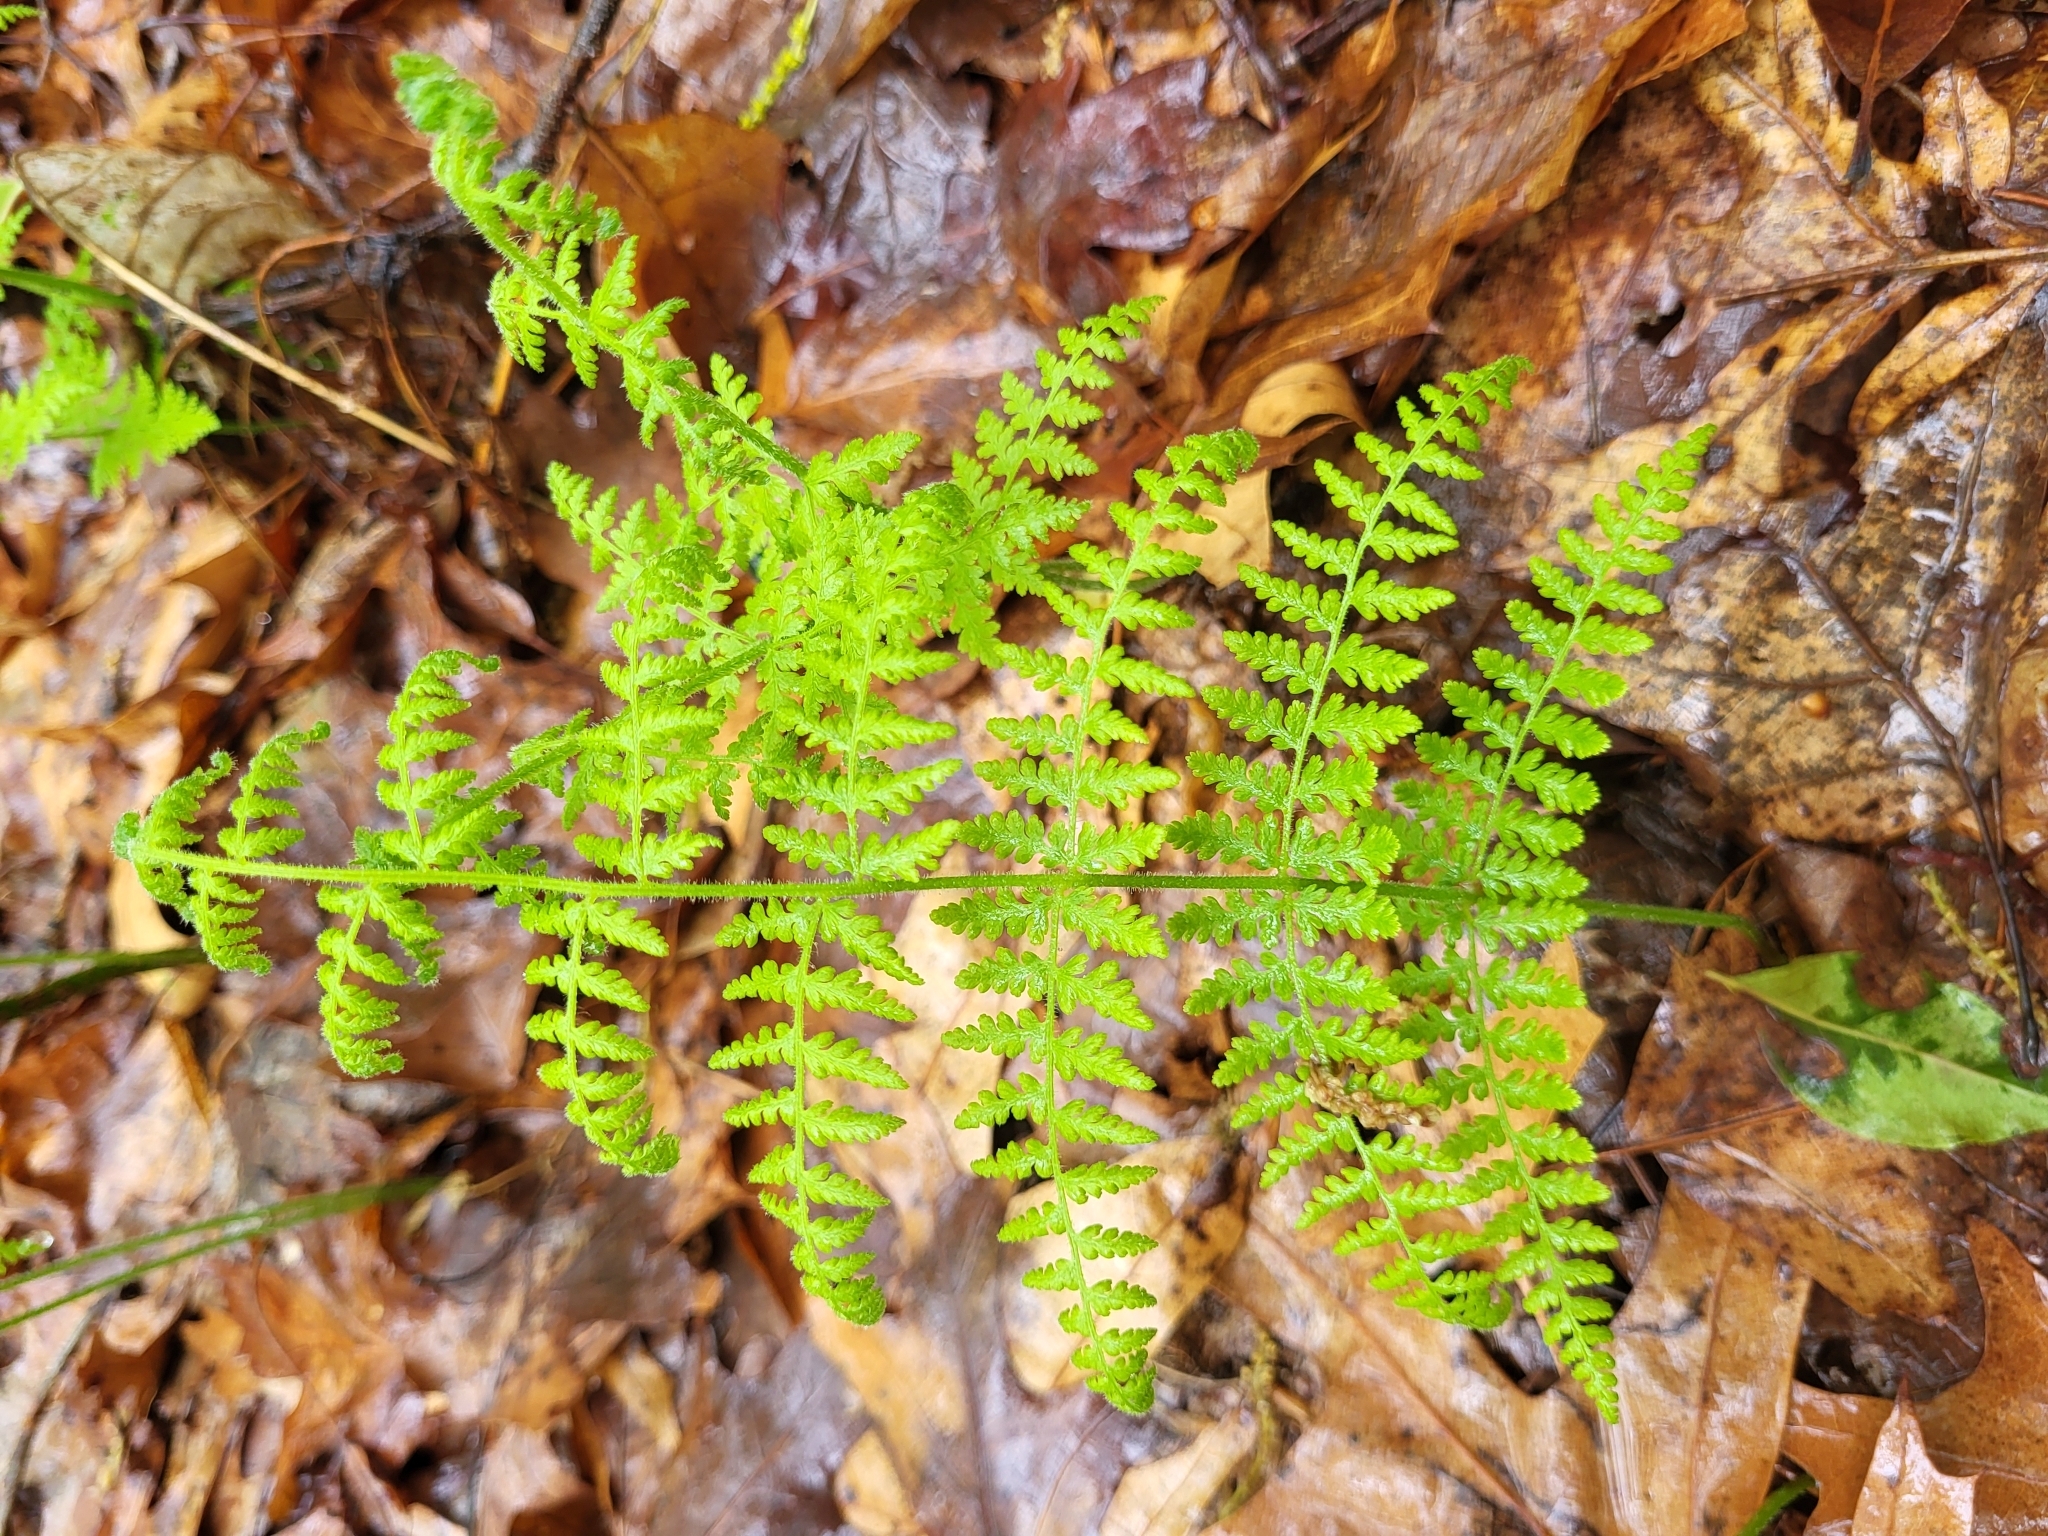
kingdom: Plantae
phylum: Tracheophyta
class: Polypodiopsida
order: Polypodiales
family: Dennstaedtiaceae
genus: Sitobolium
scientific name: Sitobolium punctilobum
